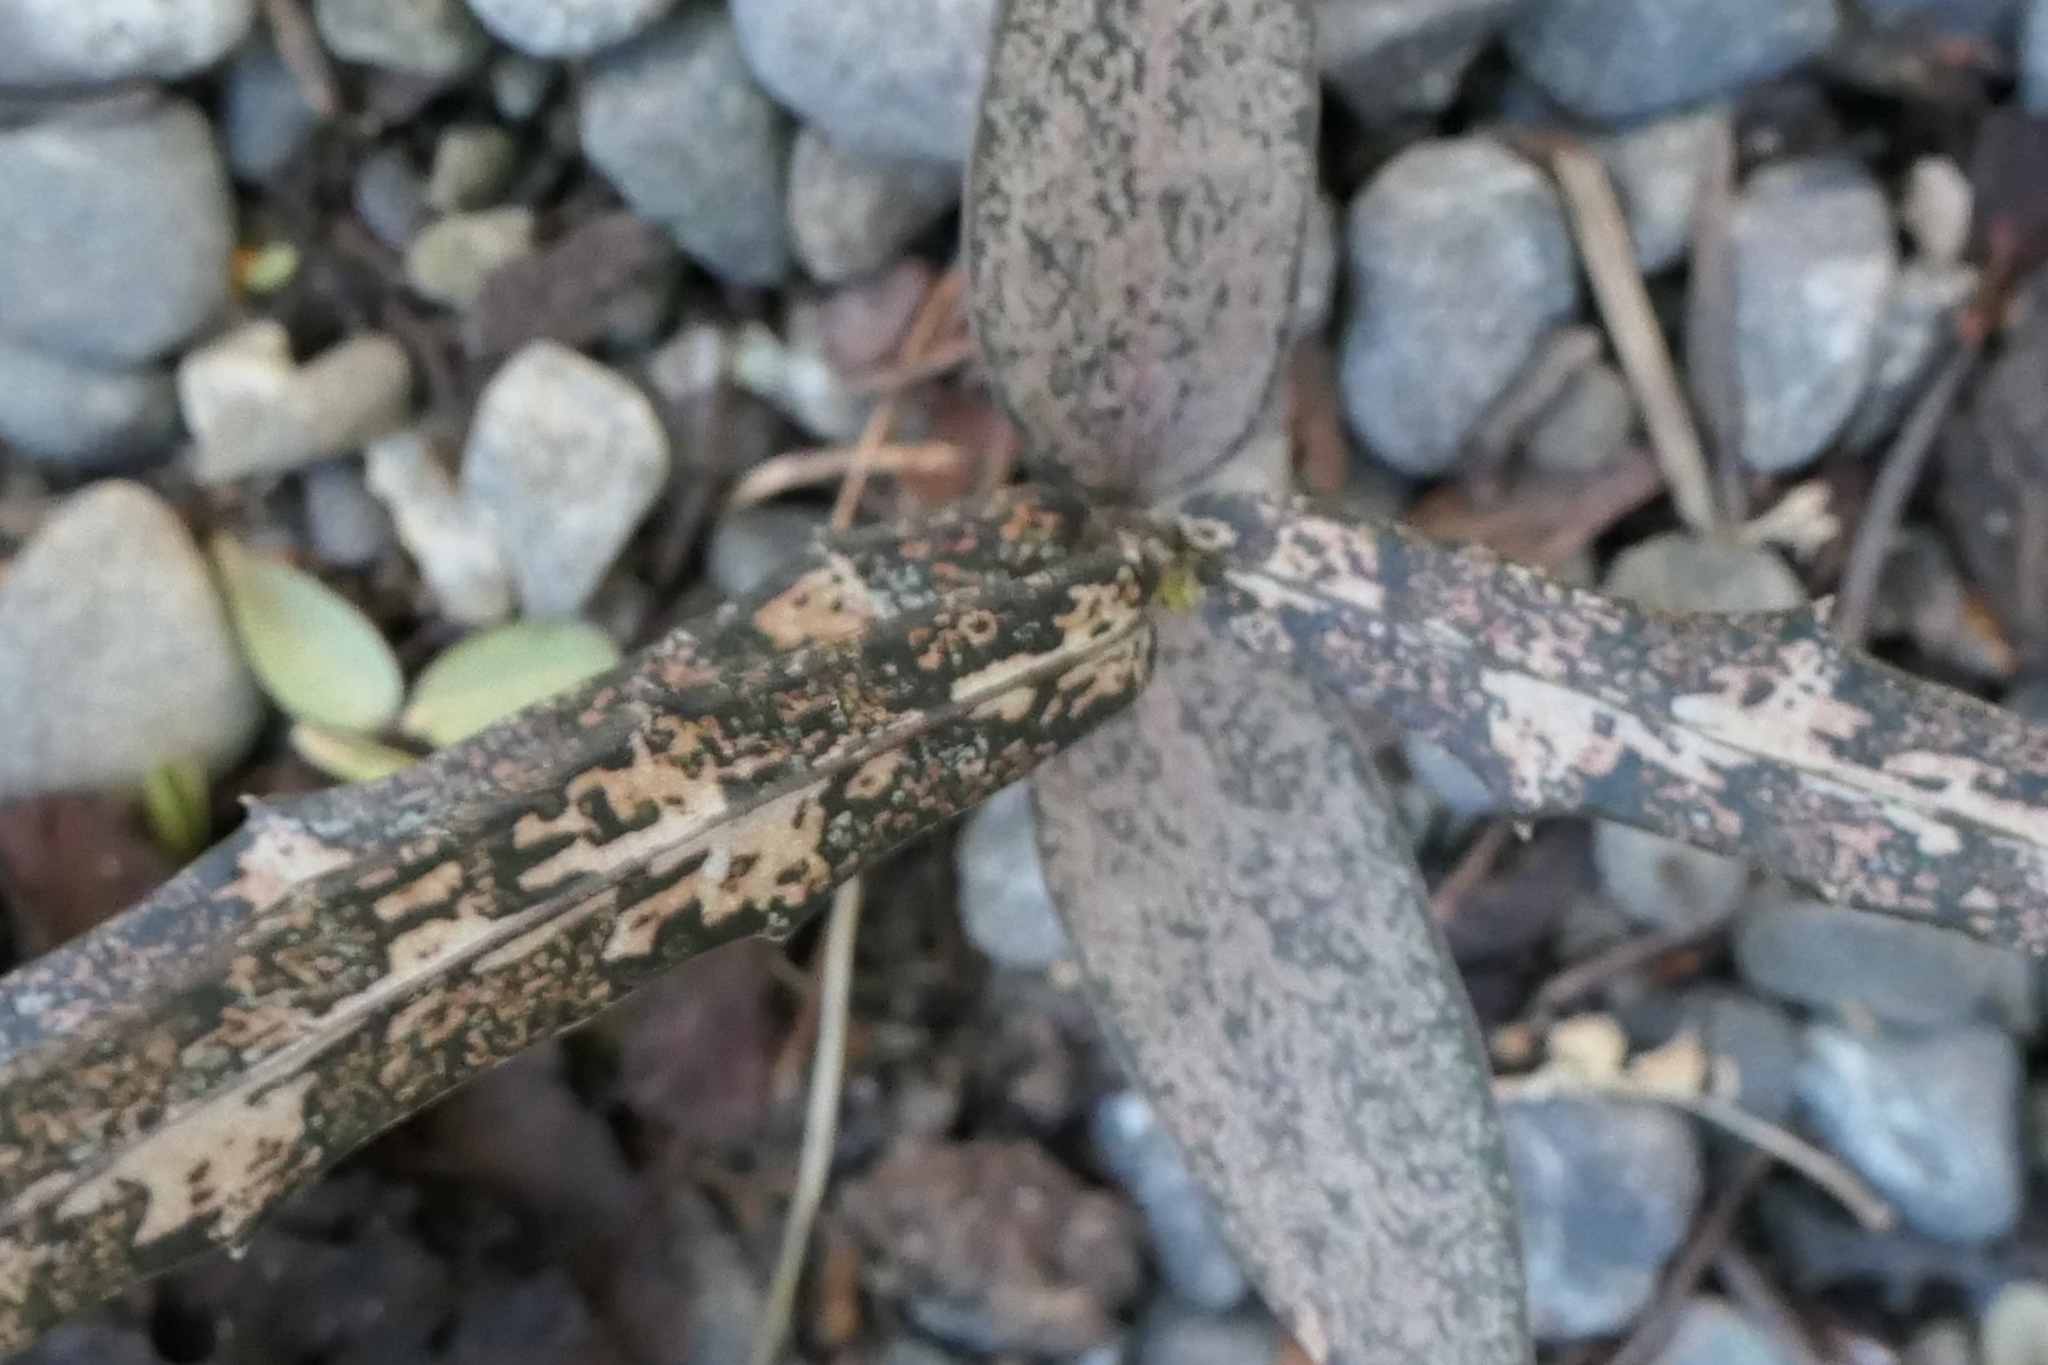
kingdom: Plantae
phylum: Tracheophyta
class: Magnoliopsida
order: Apiales
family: Araliaceae
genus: Pseudopanax
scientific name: Pseudopanax crassifolius
